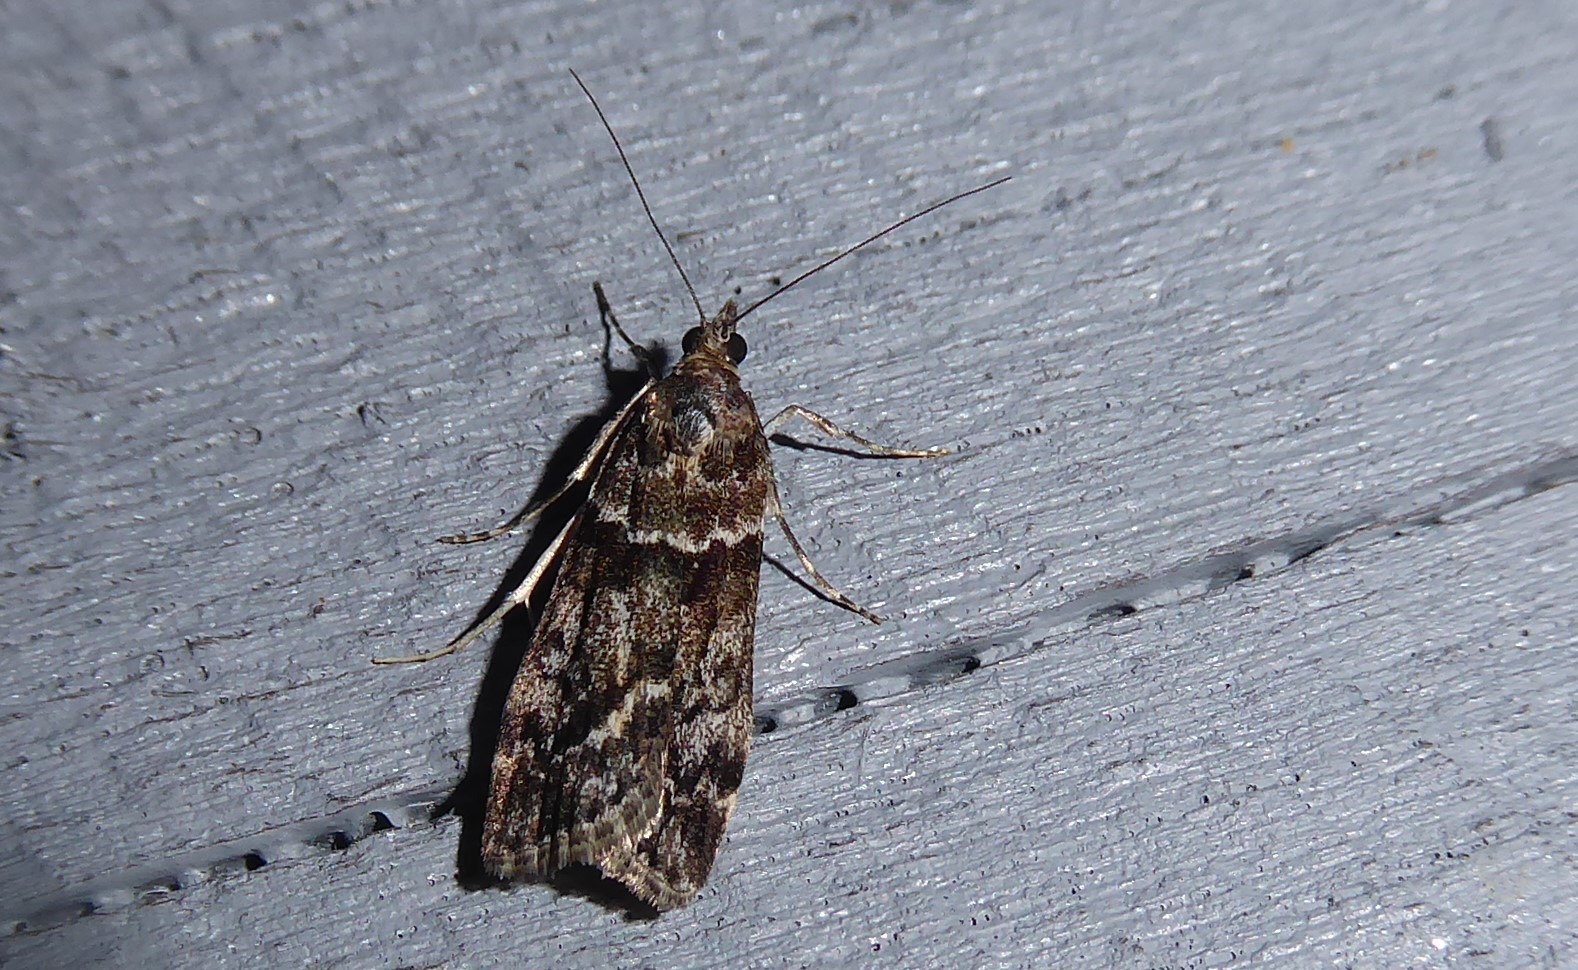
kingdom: Animalia
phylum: Arthropoda
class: Insecta
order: Lepidoptera
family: Crambidae
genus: Eudonia
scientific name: Eudonia submarginalis
